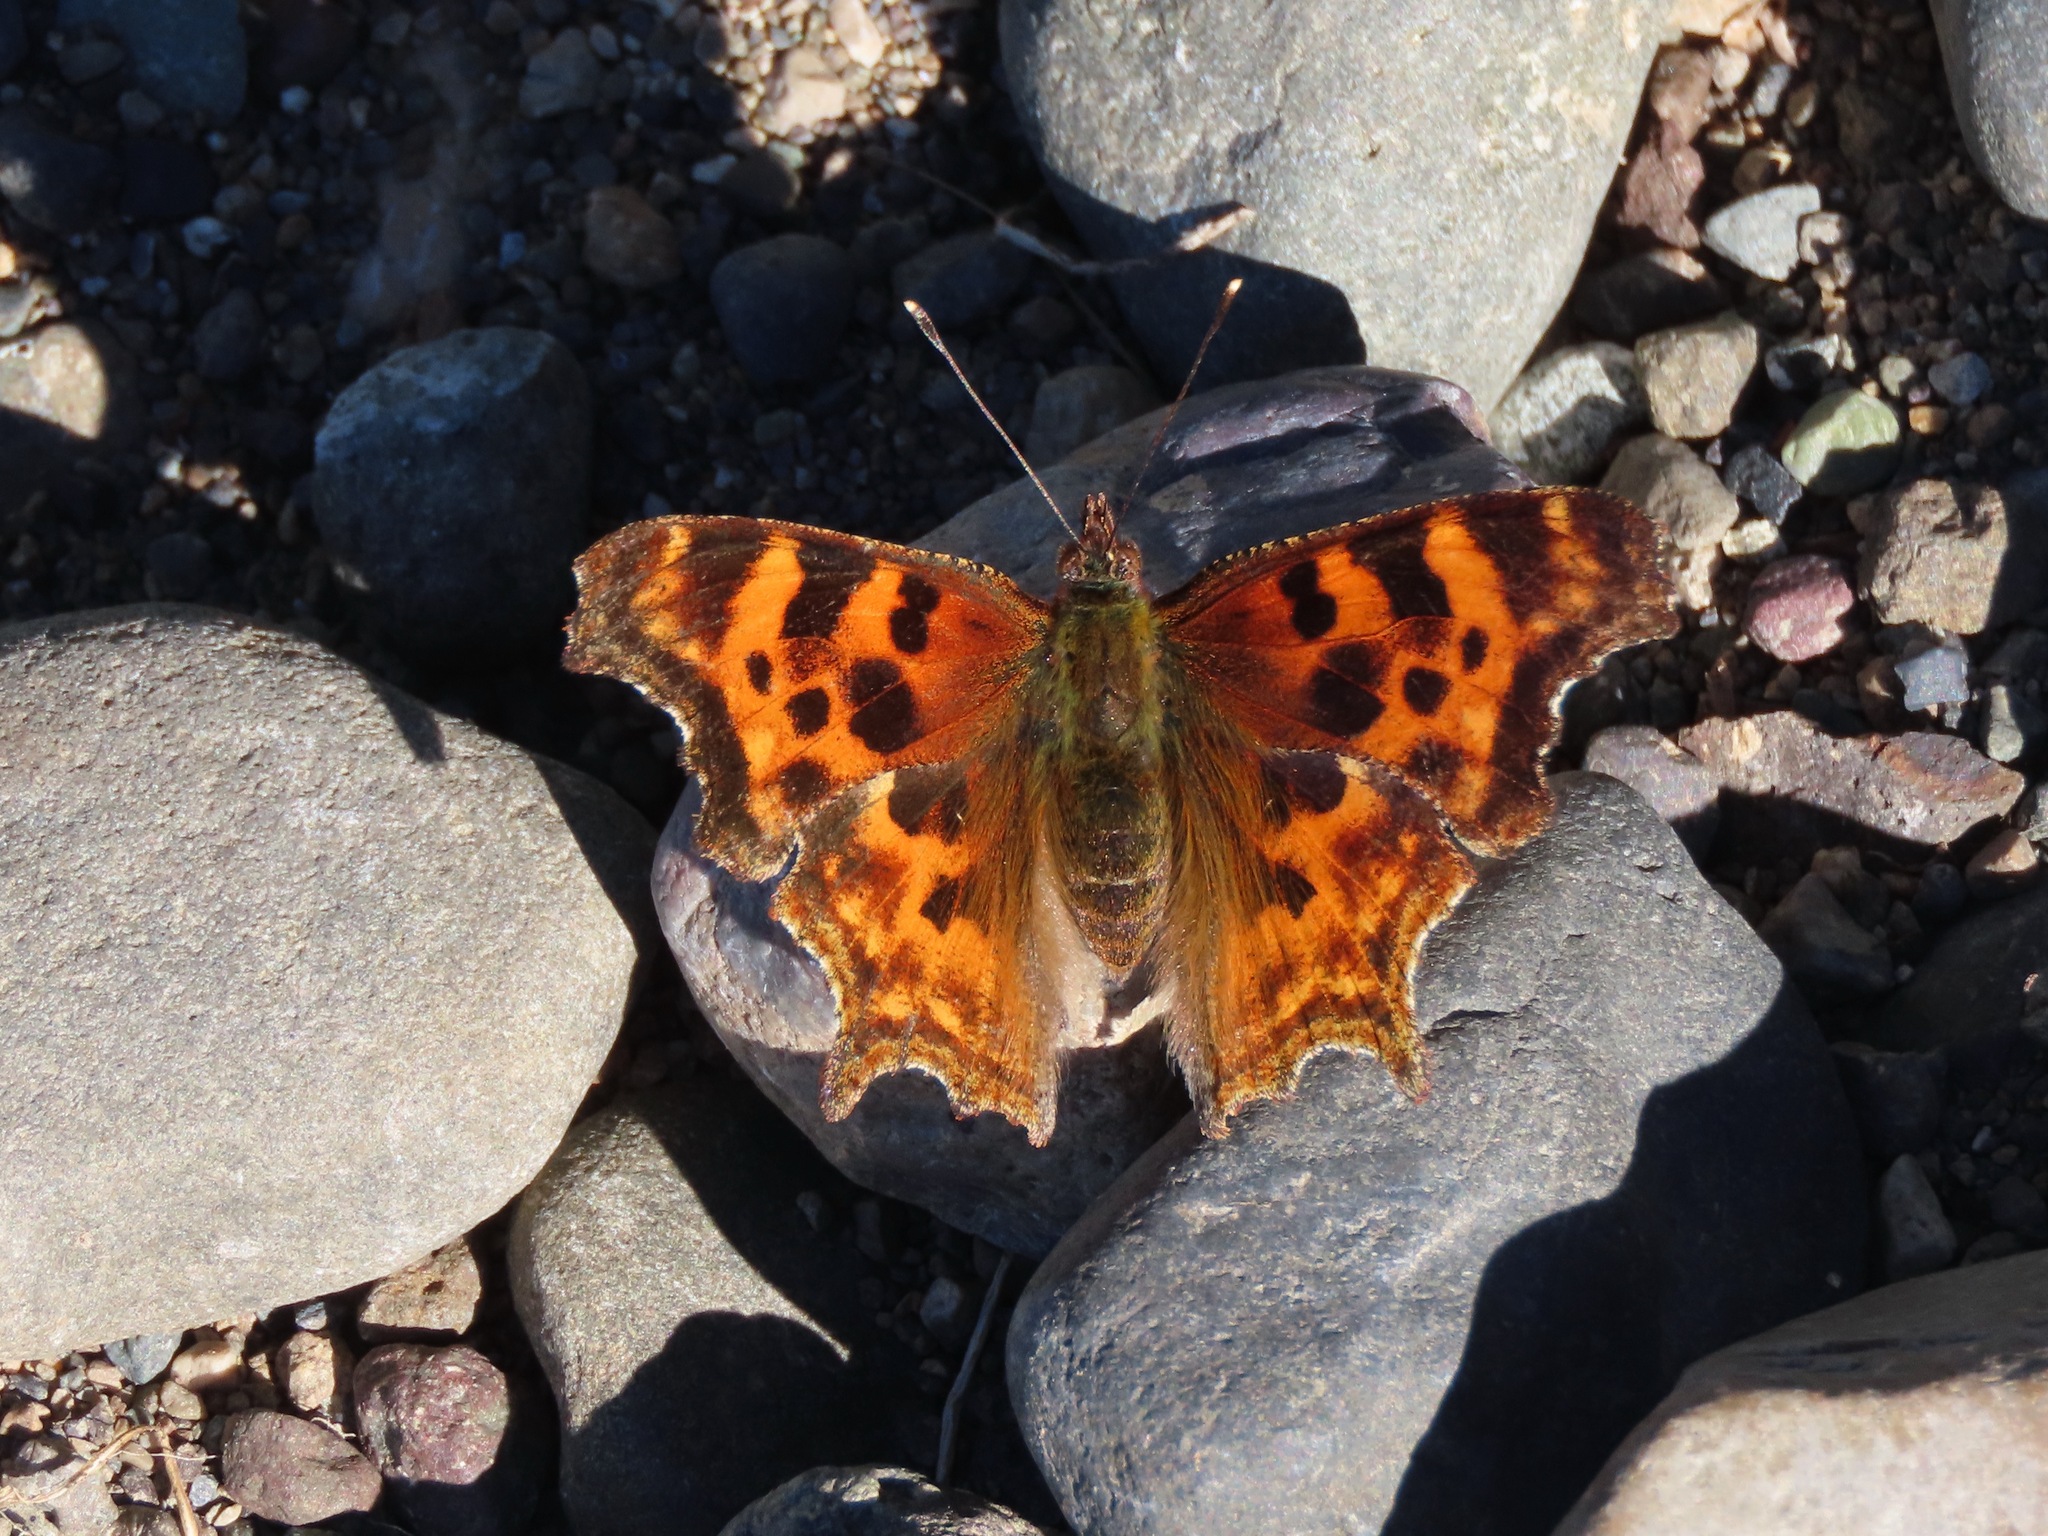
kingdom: Animalia
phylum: Arthropoda
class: Insecta
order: Lepidoptera
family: Nymphalidae
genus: Polygonia
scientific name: Polygonia satyrus
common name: Satyr angle wing
